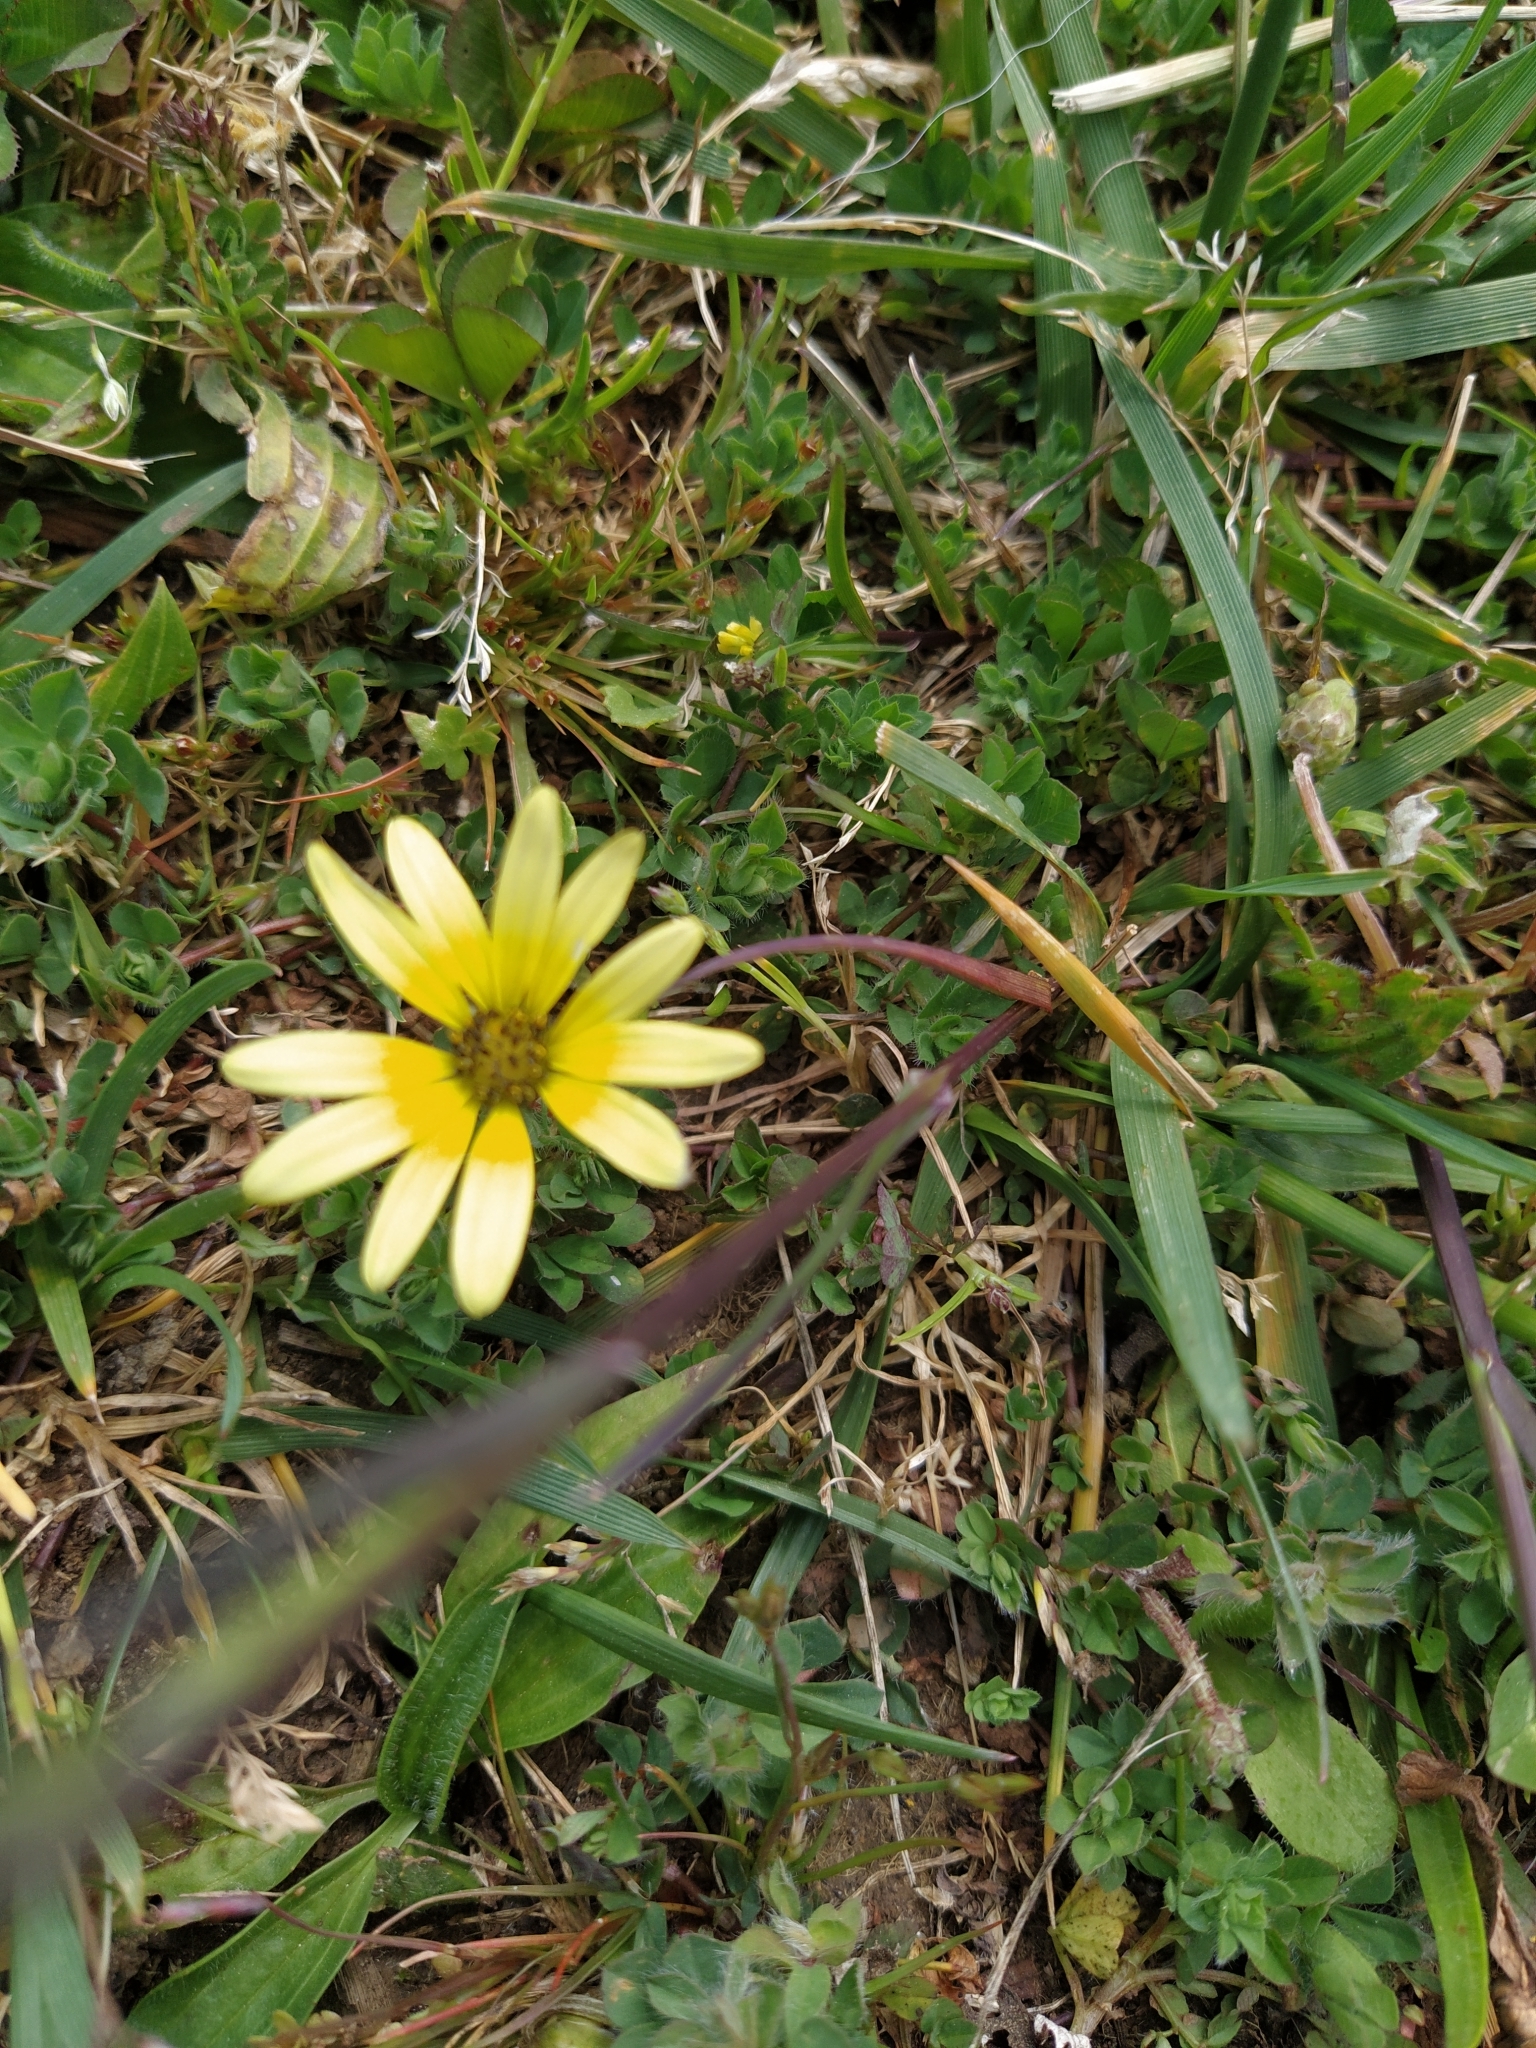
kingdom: Plantae
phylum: Tracheophyta
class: Magnoliopsida
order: Asterales
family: Asteraceae
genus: Arctotheca
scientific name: Arctotheca calendula
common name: Capeweed
